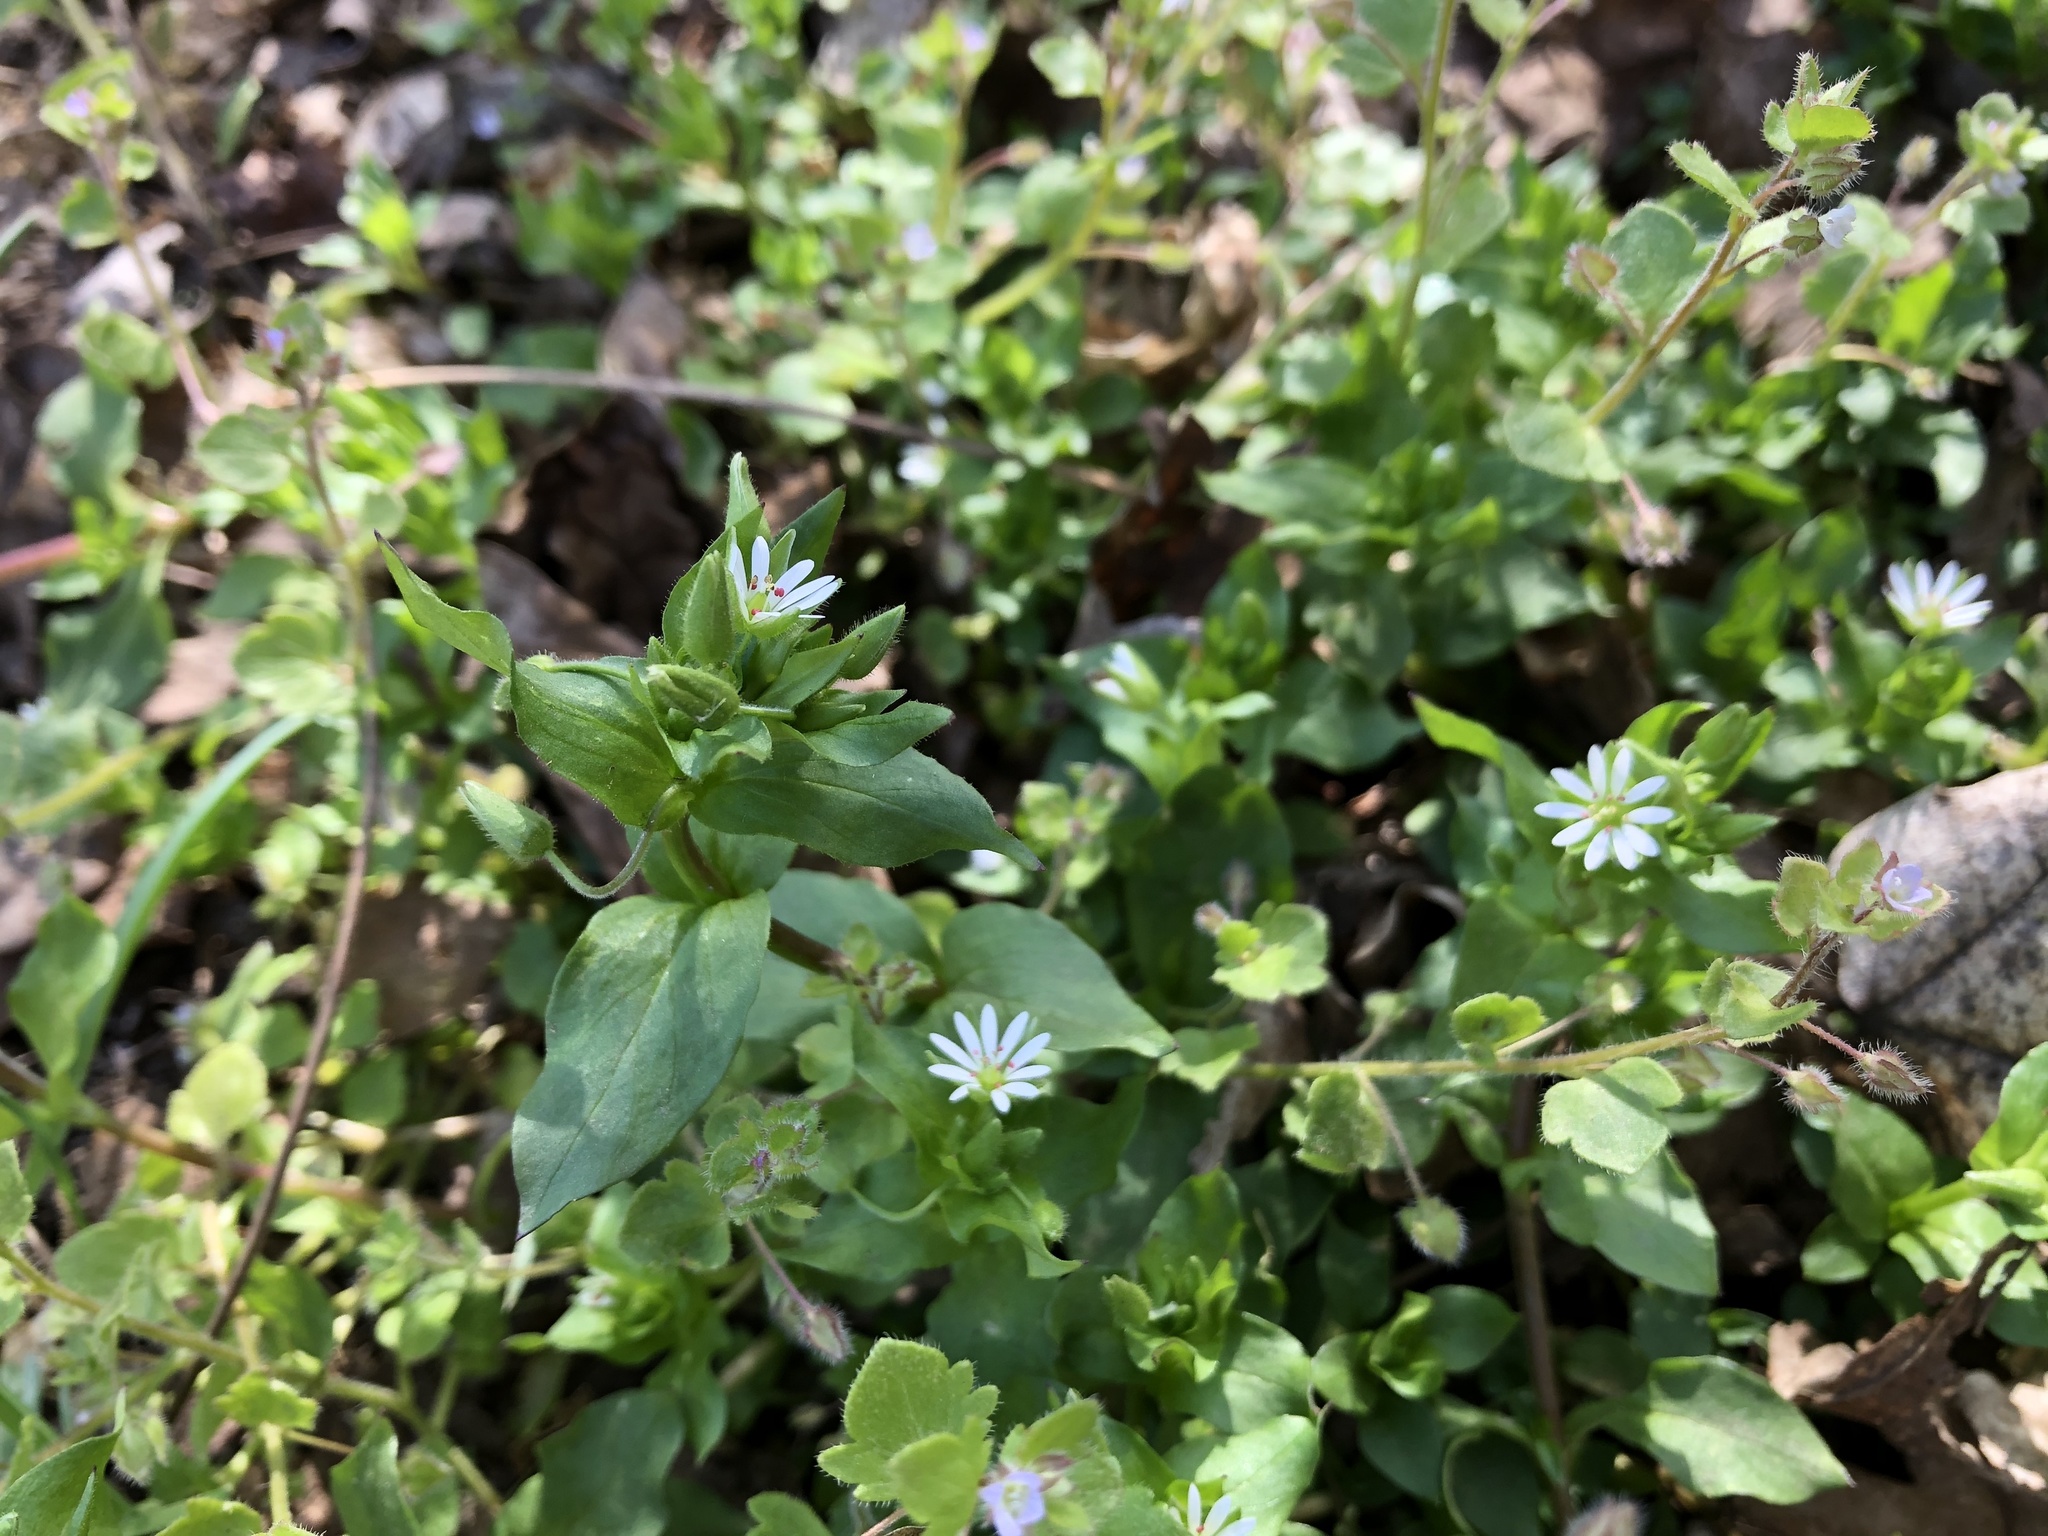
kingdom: Plantae
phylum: Tracheophyta
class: Magnoliopsida
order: Caryophyllales
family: Caryophyllaceae
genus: Stellaria
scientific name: Stellaria media
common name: Common chickweed
